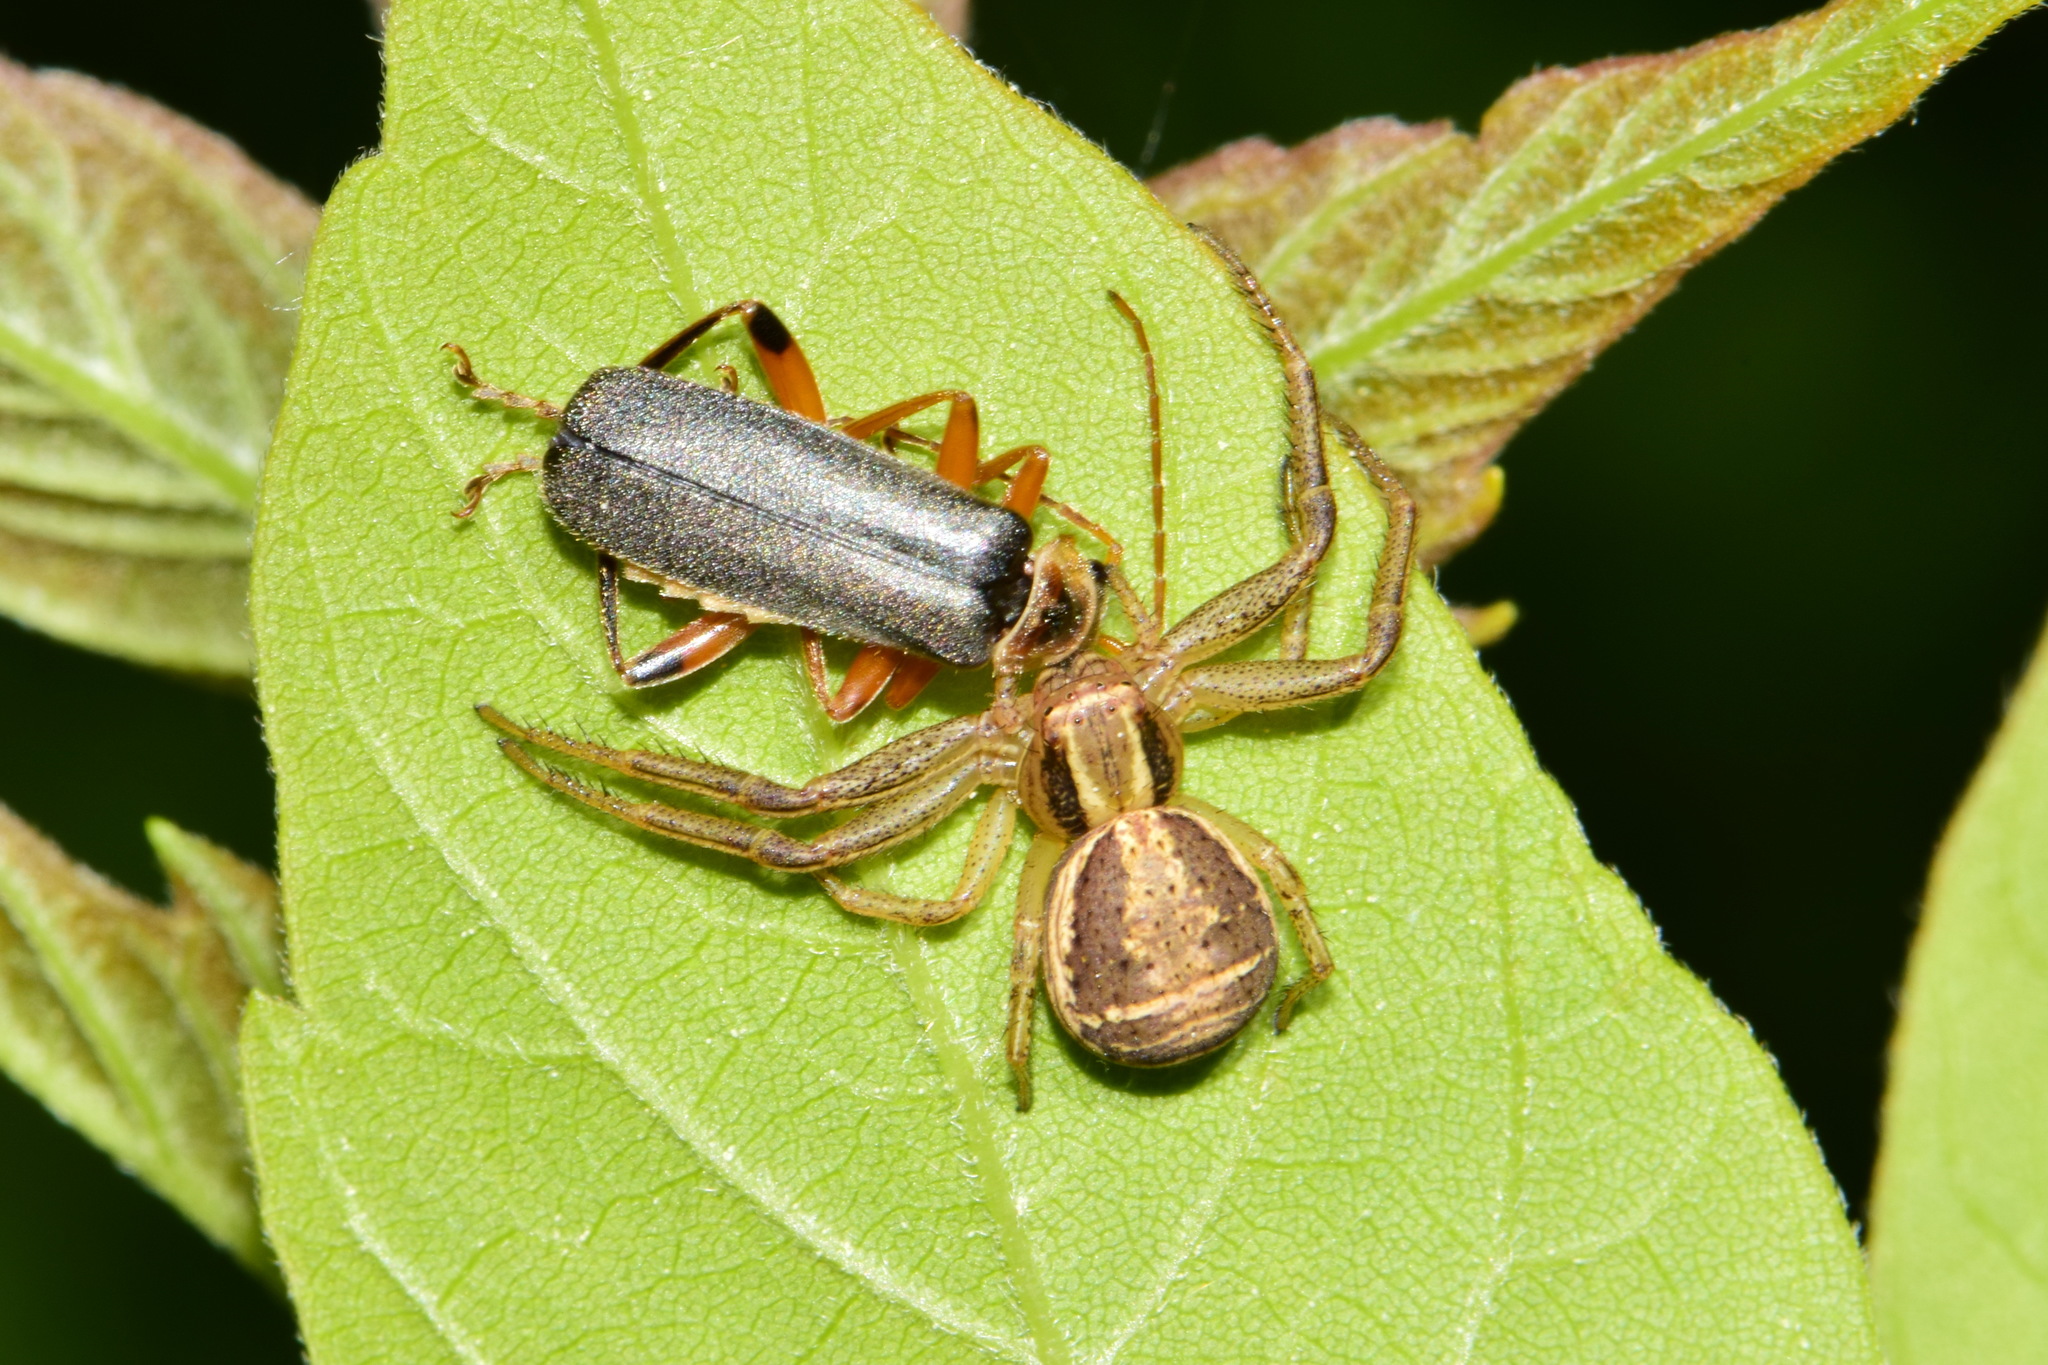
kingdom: Animalia
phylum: Arthropoda
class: Insecta
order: Coleoptera
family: Cantharidae
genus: Cantharis
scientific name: Cantharis nigricans
